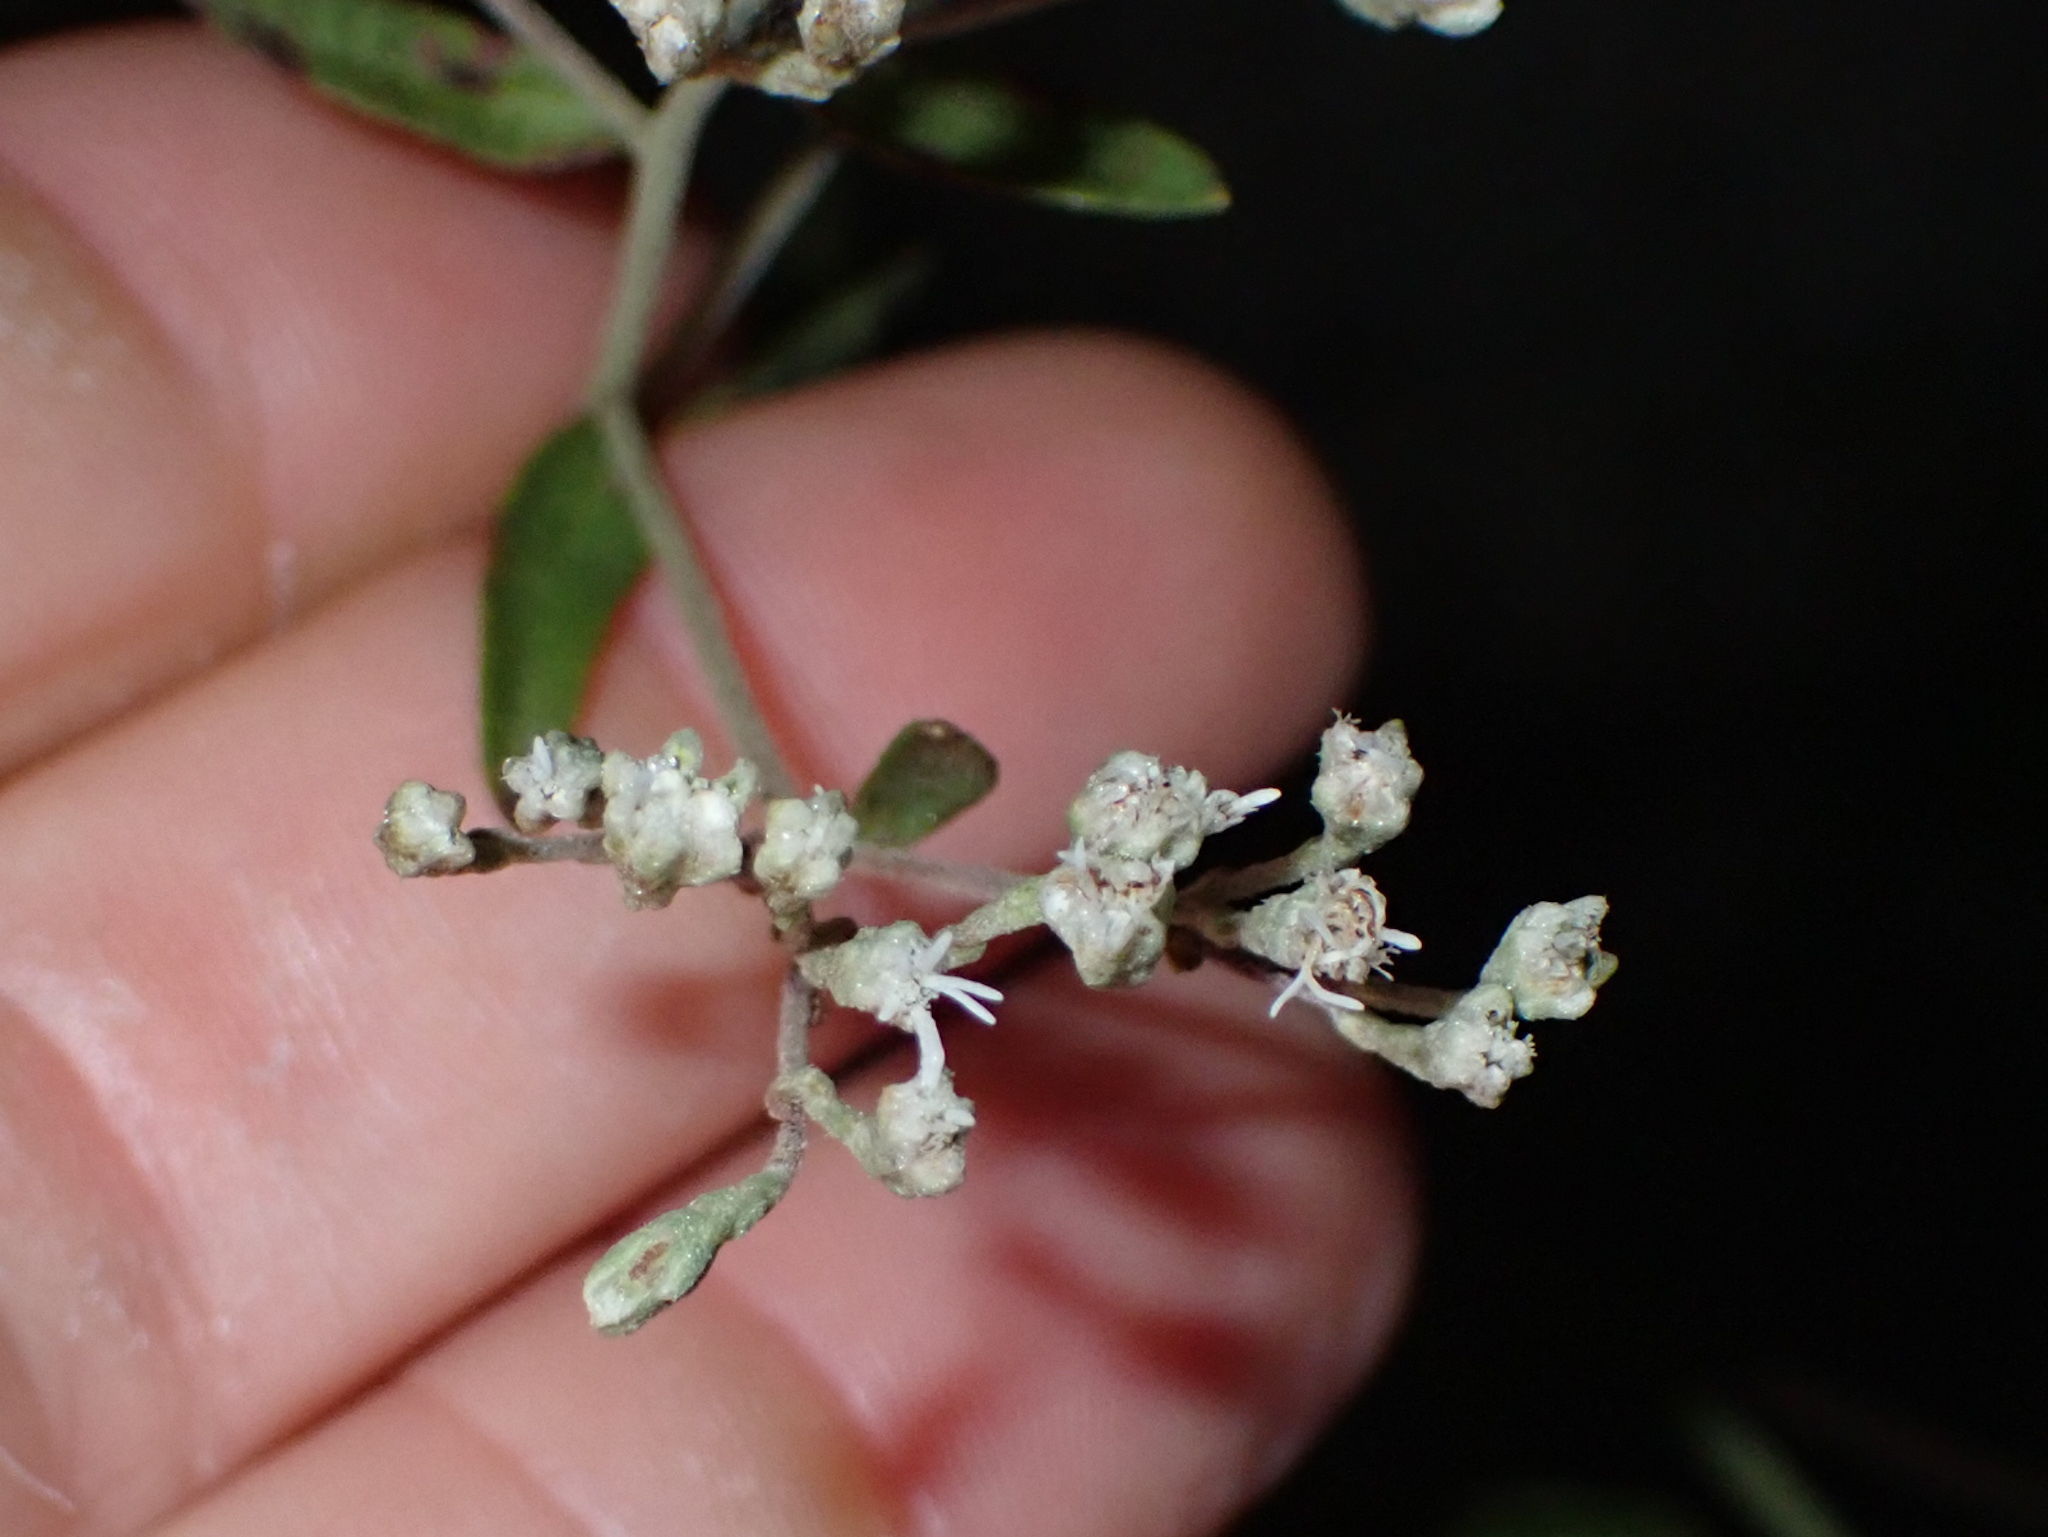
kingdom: Plantae
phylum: Tracheophyta
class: Magnoliopsida
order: Asterales
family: Asteraceae
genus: Baccharis
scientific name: Baccharis halimifolia
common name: Eastern baccharis
